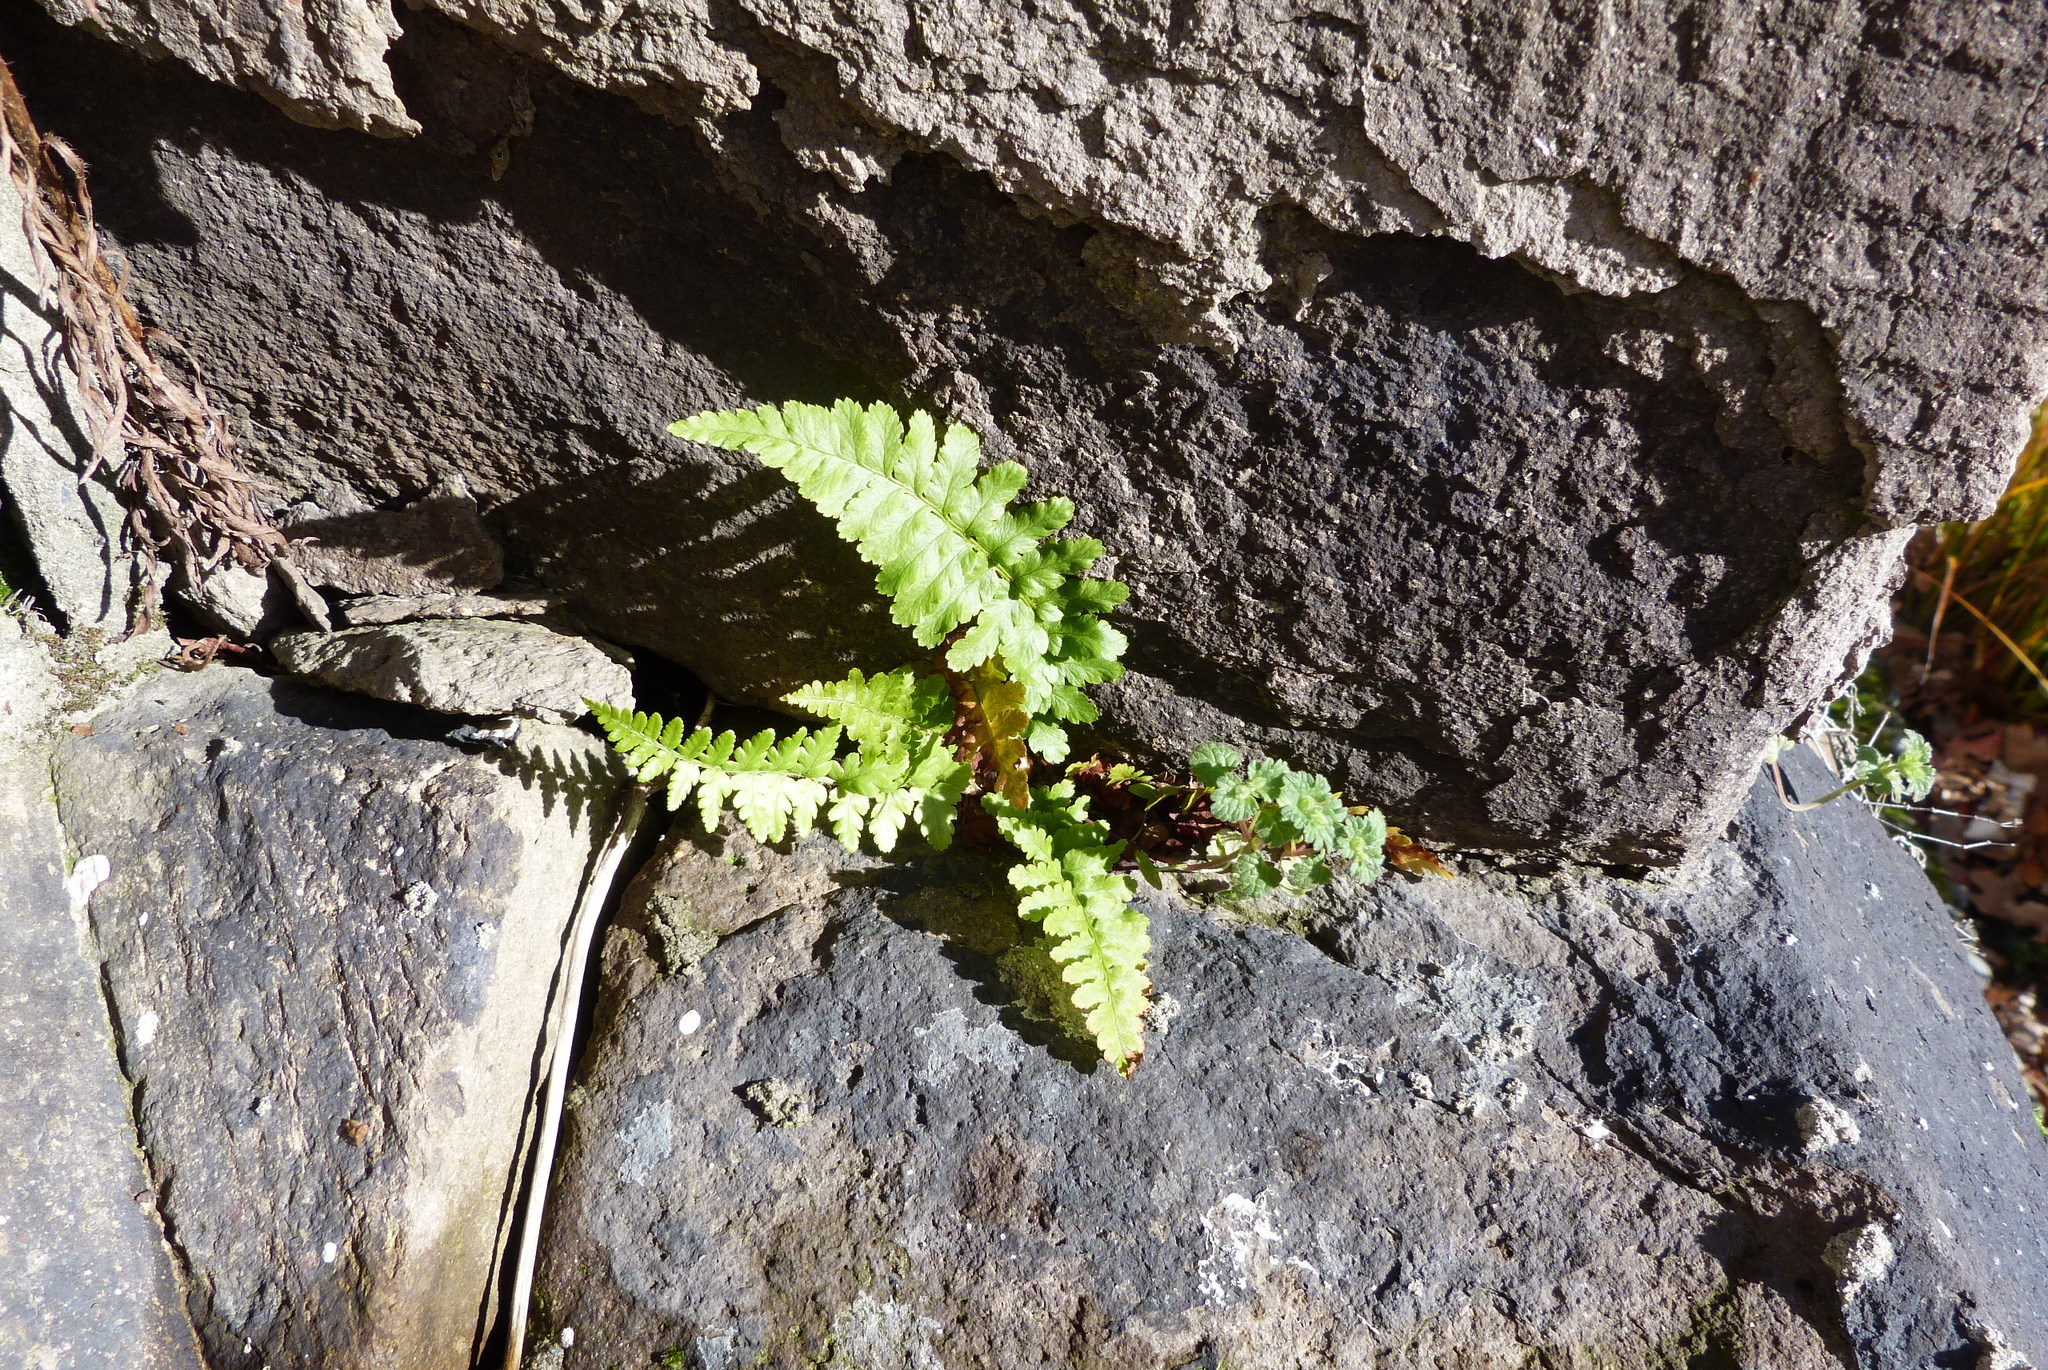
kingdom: Plantae
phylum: Tracheophyta
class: Polypodiopsida
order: Polypodiales
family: Dryopteridaceae
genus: Dryopteris
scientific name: Dryopteris filix-mas
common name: Male fern
